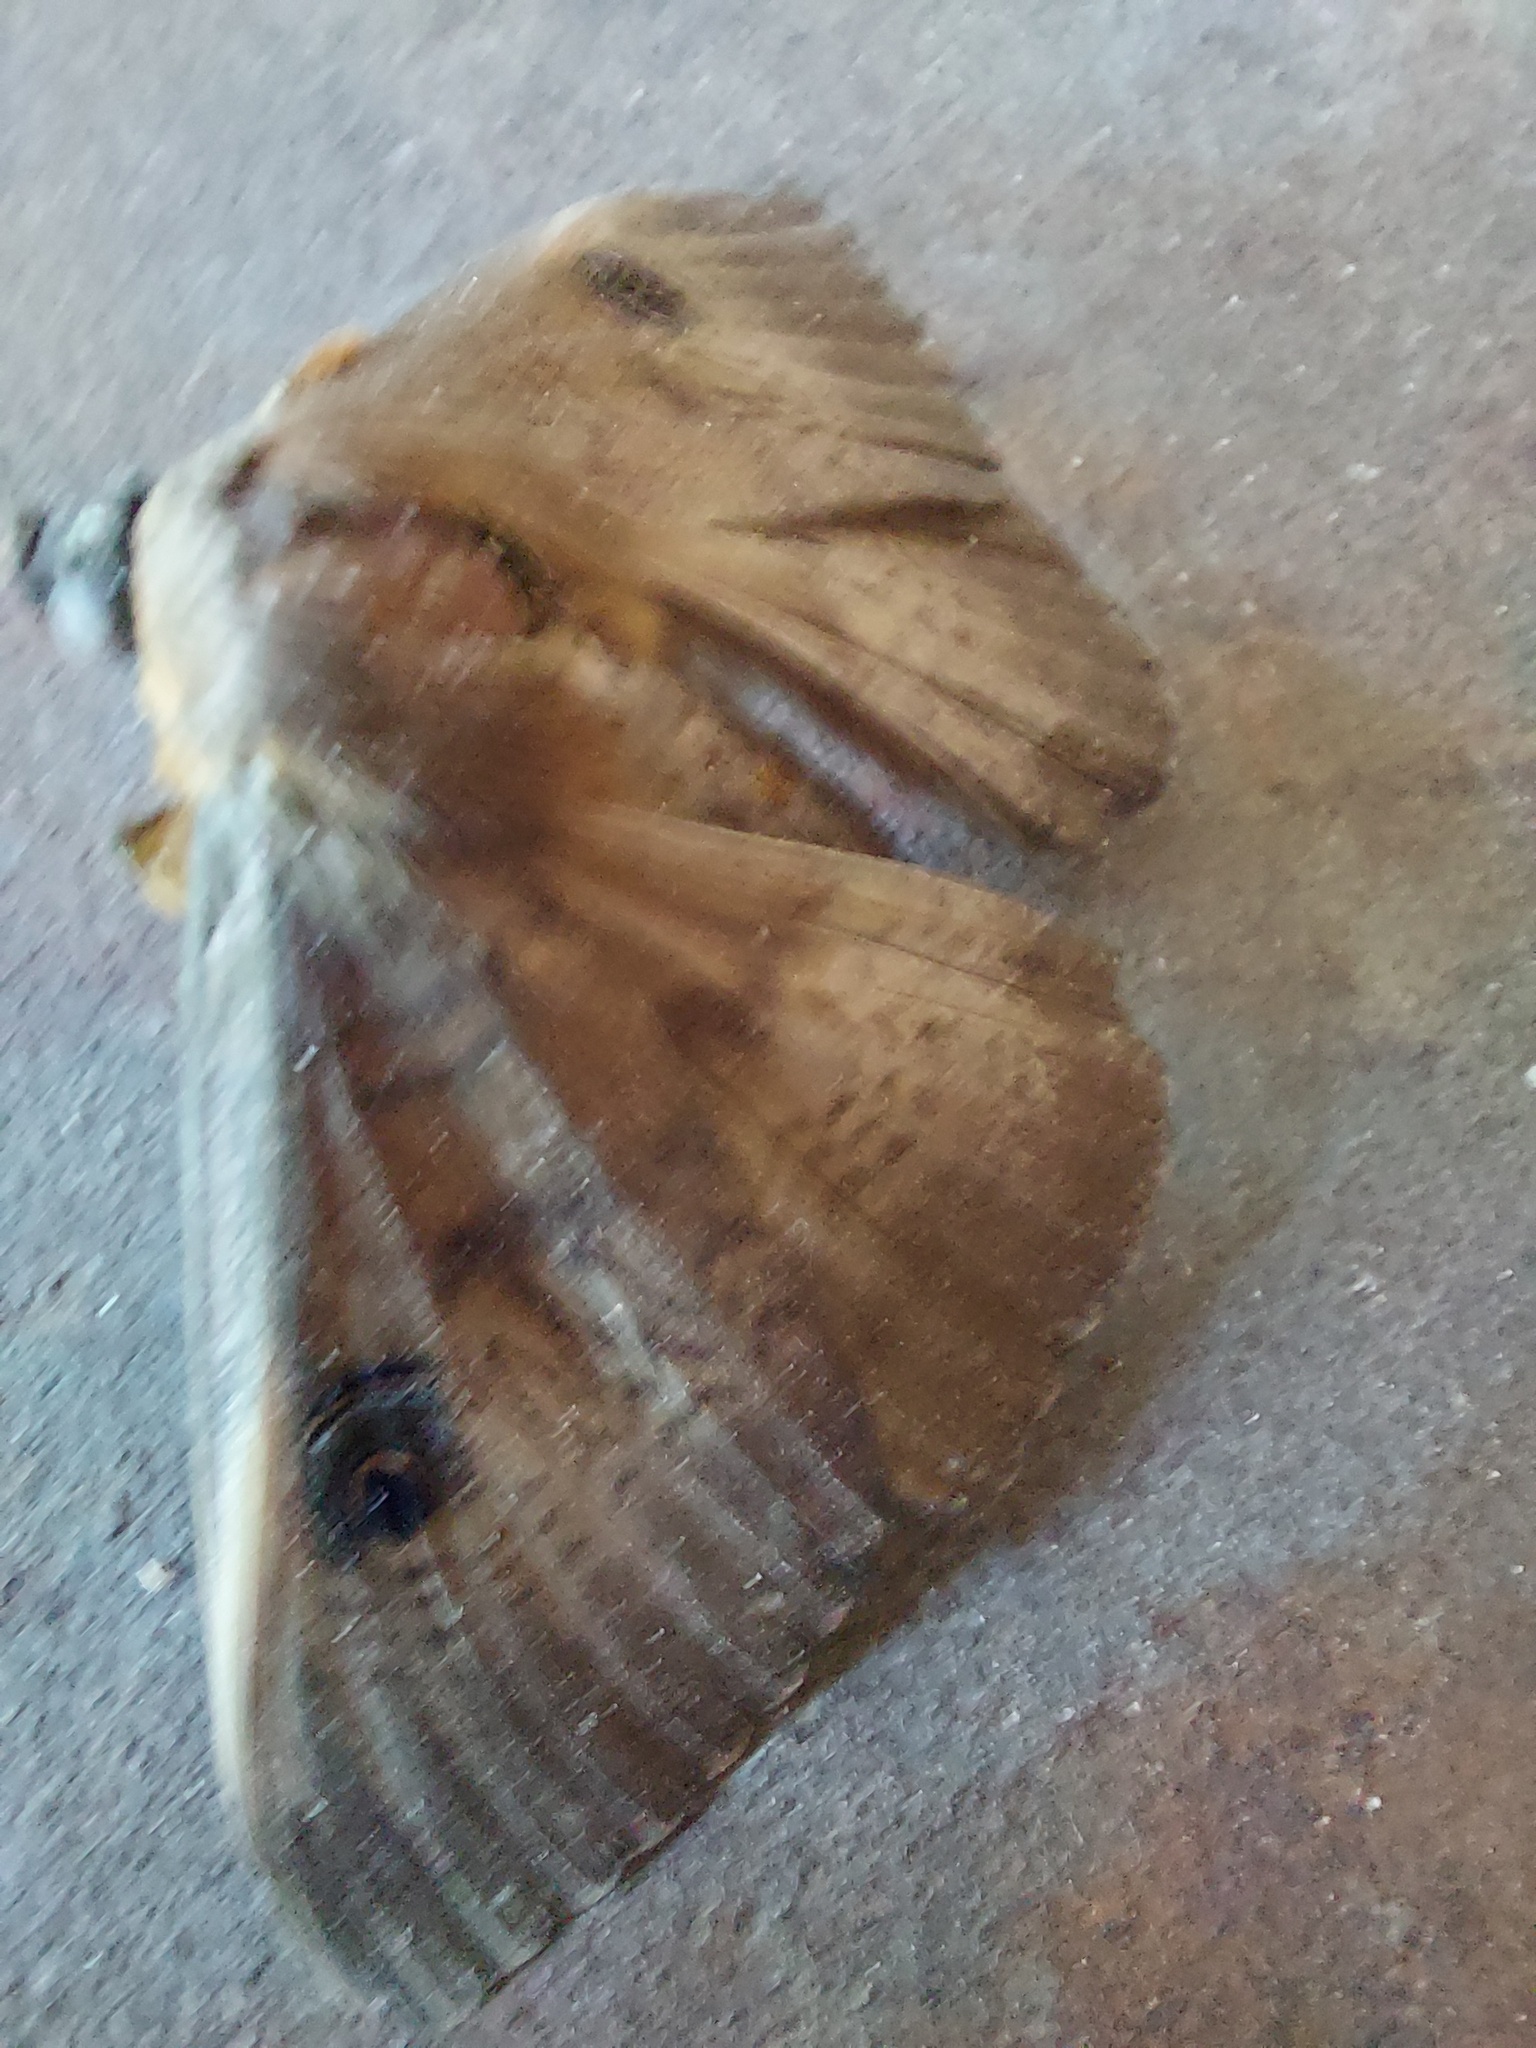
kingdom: Animalia
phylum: Arthropoda
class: Insecta
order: Lepidoptera
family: Erebidae
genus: Dasypodia
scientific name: Dasypodia selenophora
